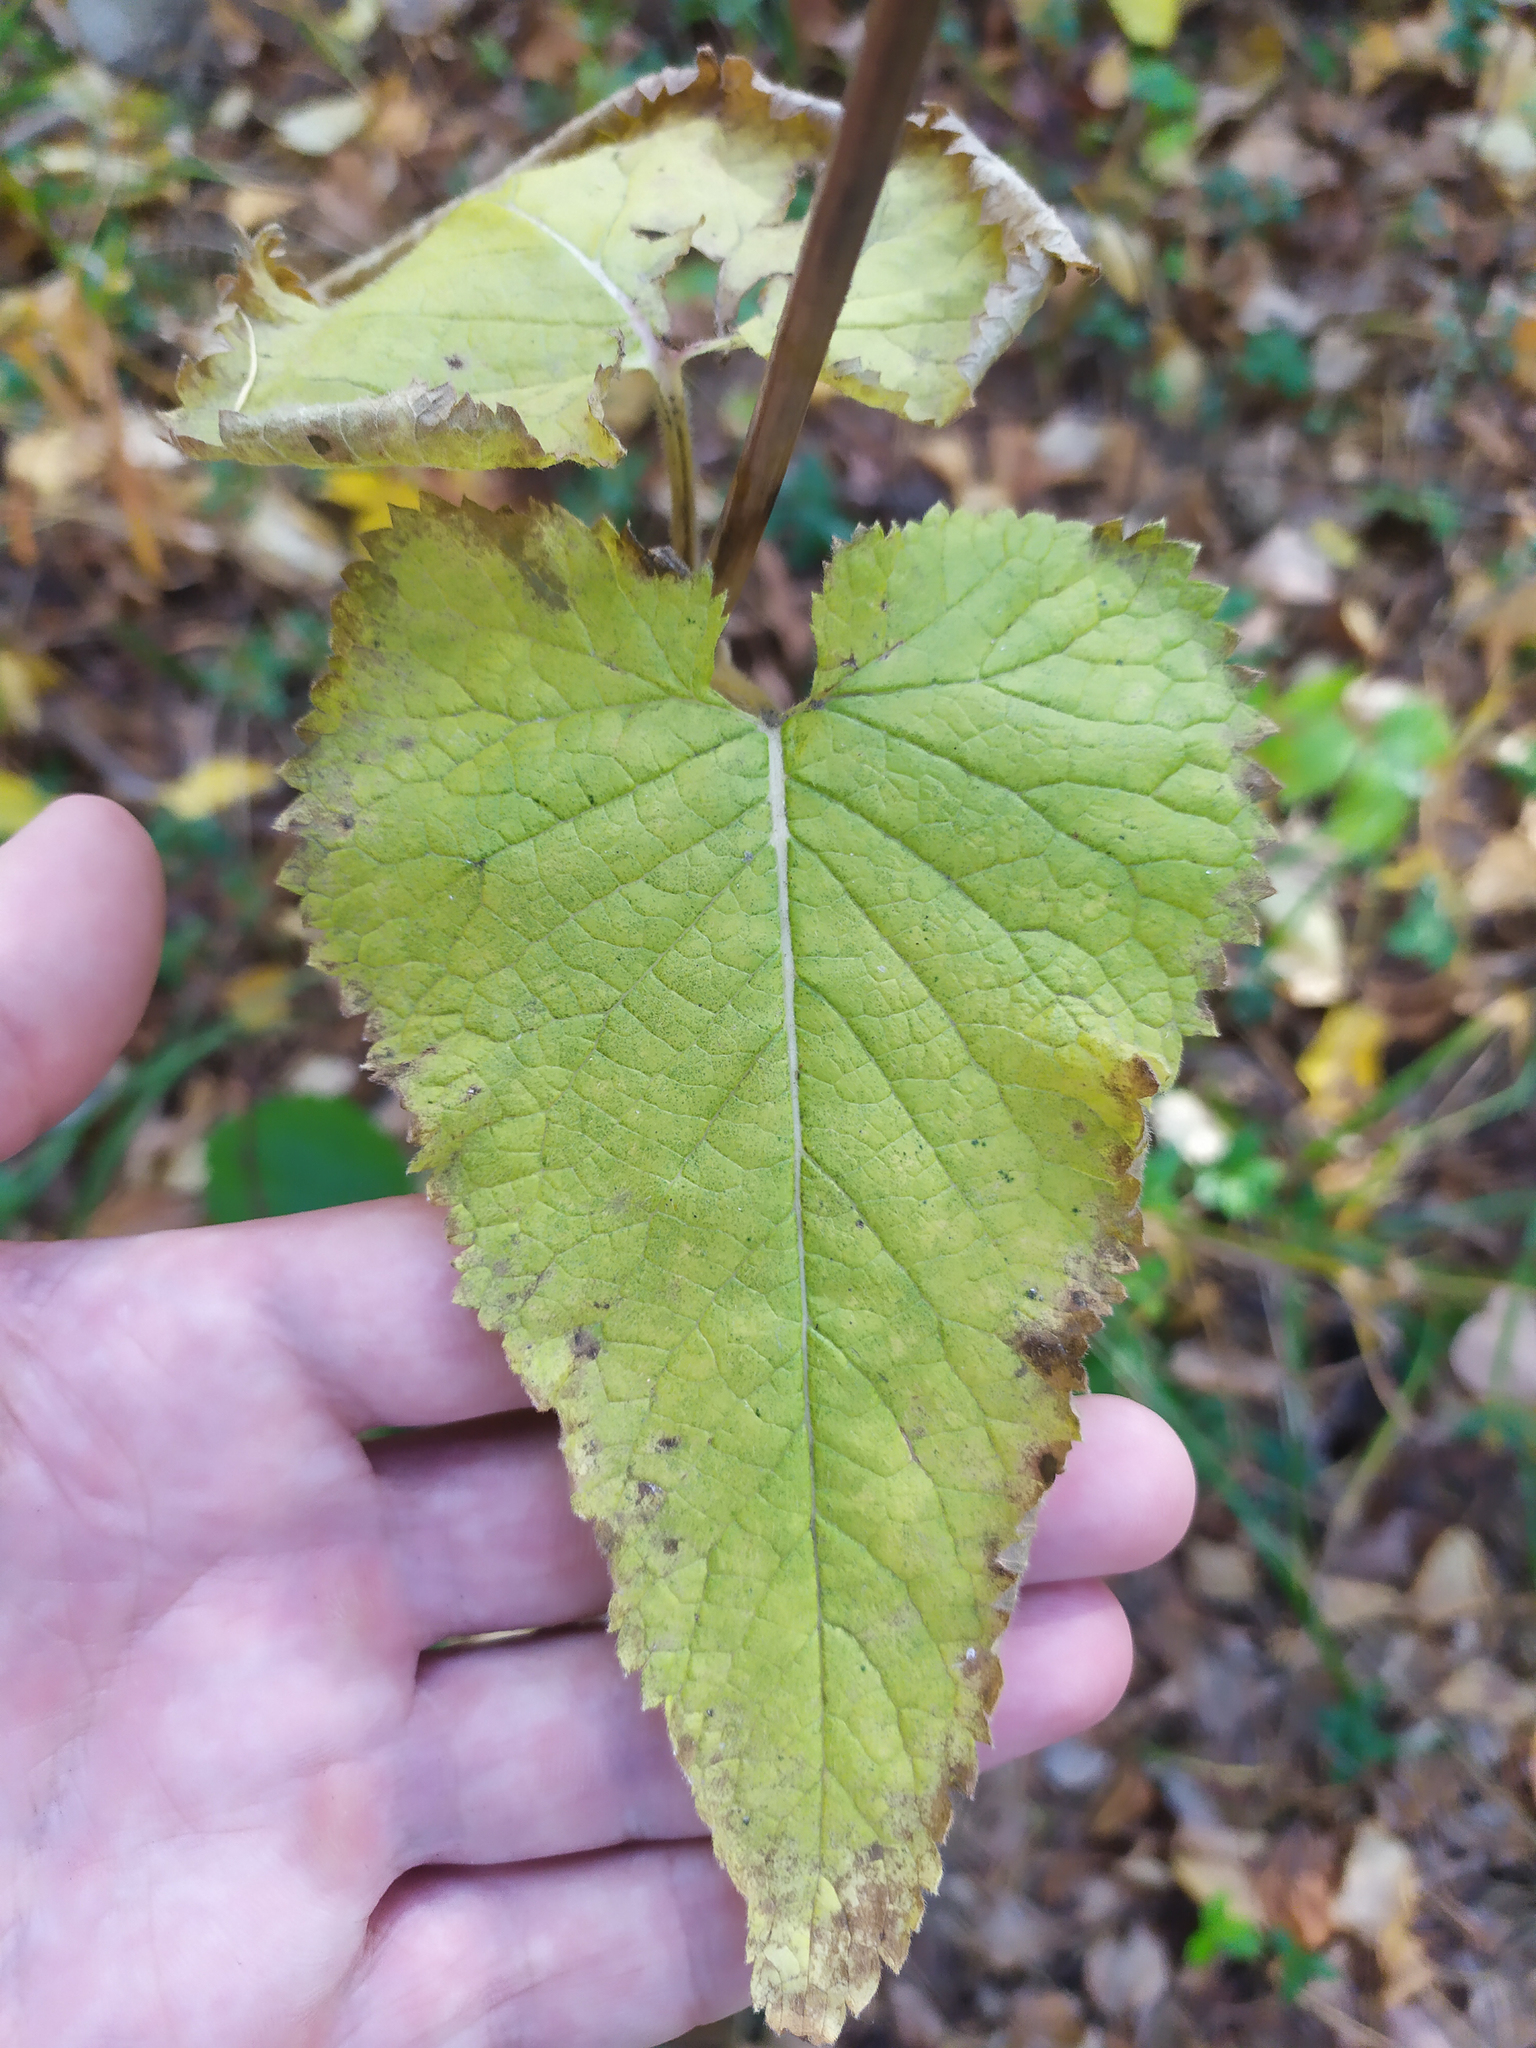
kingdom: Plantae
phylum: Tracheophyta
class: Magnoliopsida
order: Lamiales
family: Lamiaceae
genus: Phlomoides
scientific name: Phlomoides tuberosa
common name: Tuberous jerusalem sage
